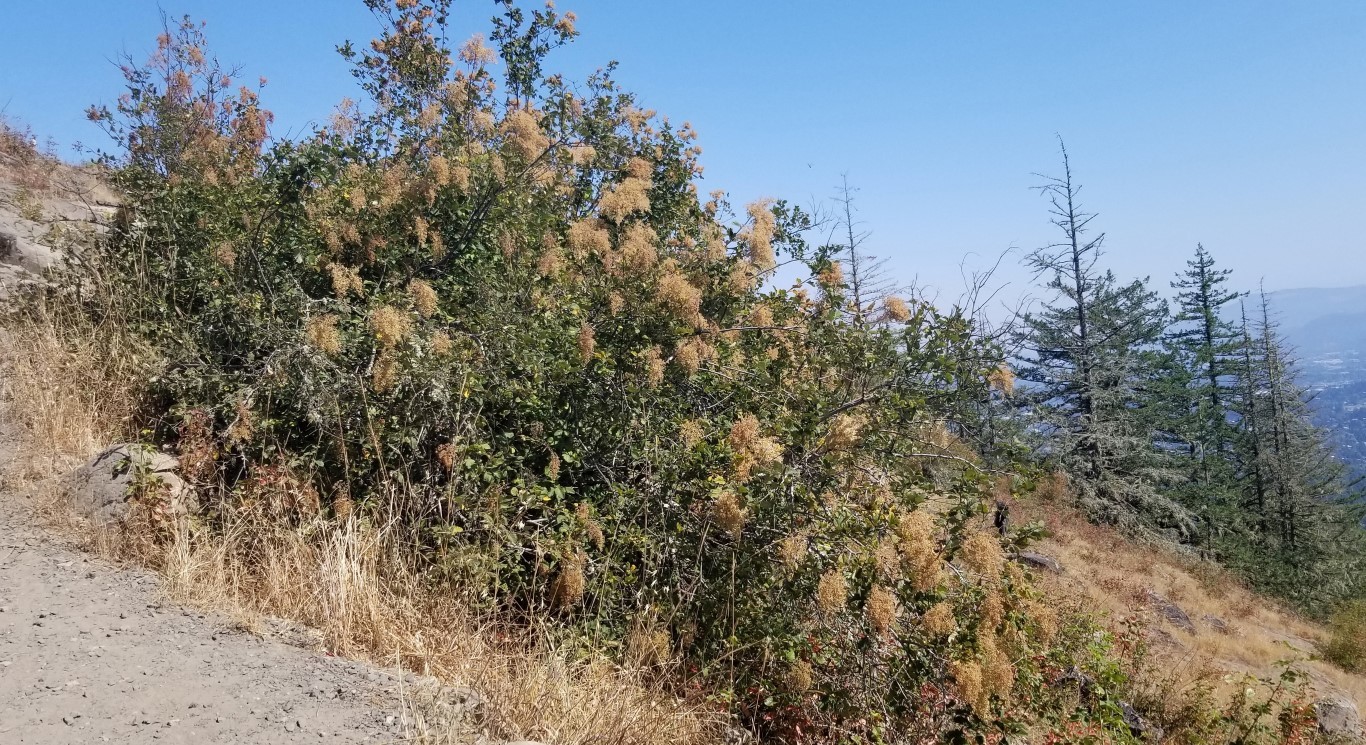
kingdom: Plantae
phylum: Tracheophyta
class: Magnoliopsida
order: Rosales
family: Rosaceae
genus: Holodiscus
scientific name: Holodiscus discolor
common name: Oceanspray
